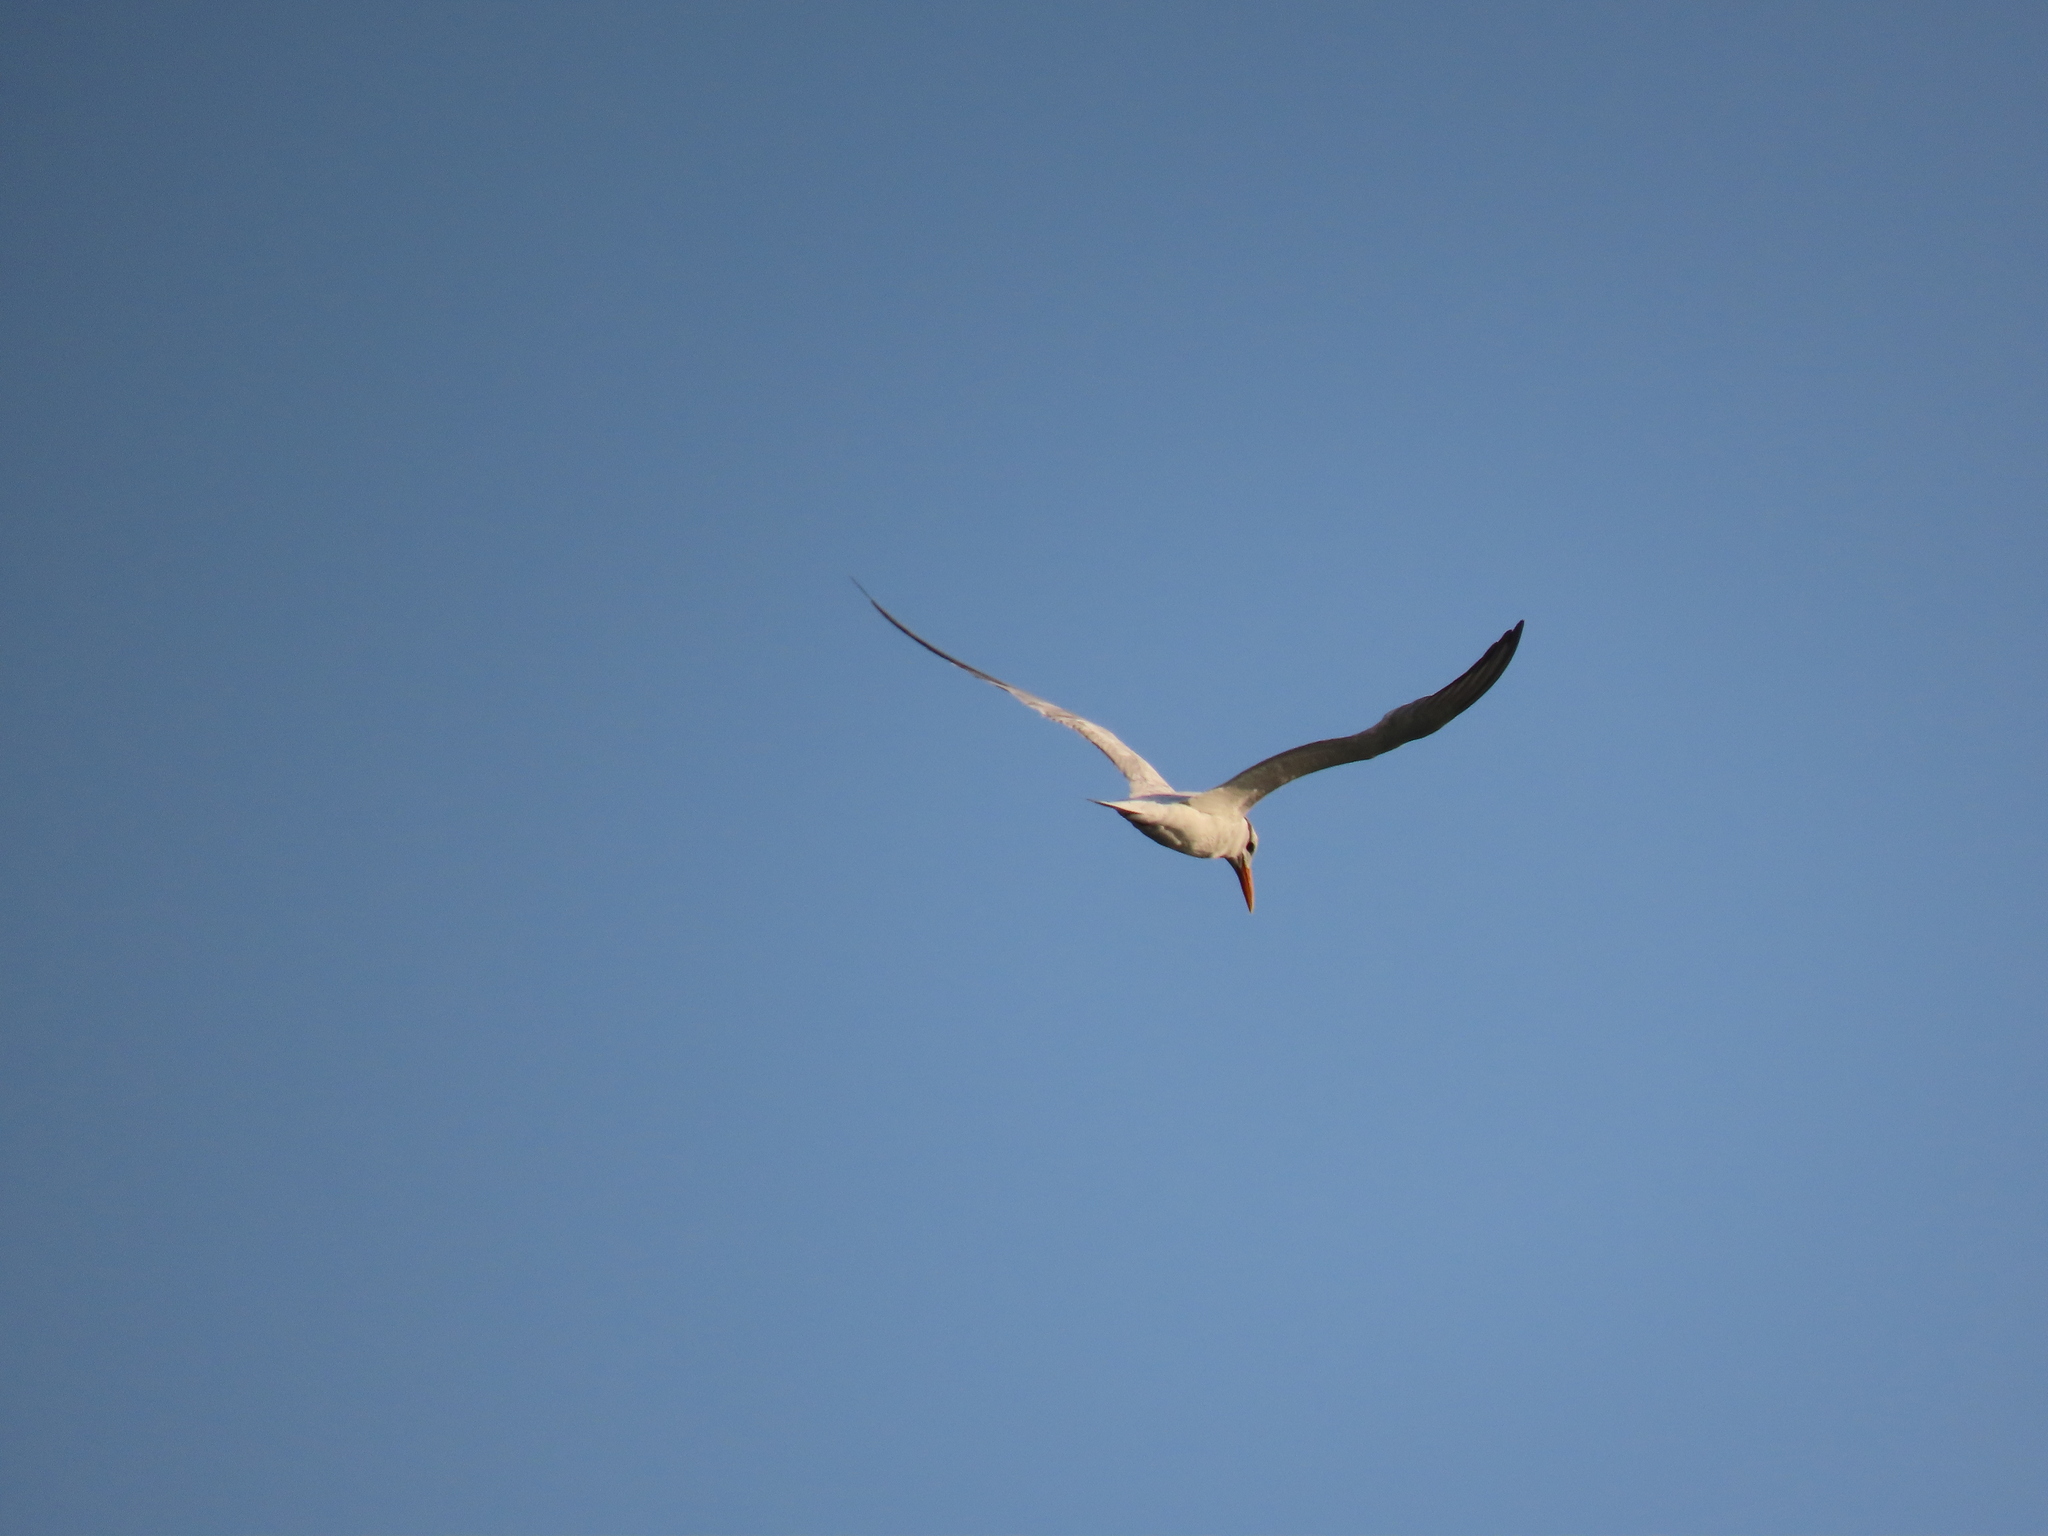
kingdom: Animalia
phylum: Chordata
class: Aves
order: Charadriiformes
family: Laridae
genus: Thalasseus
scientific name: Thalasseus maximus
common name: Royal tern
